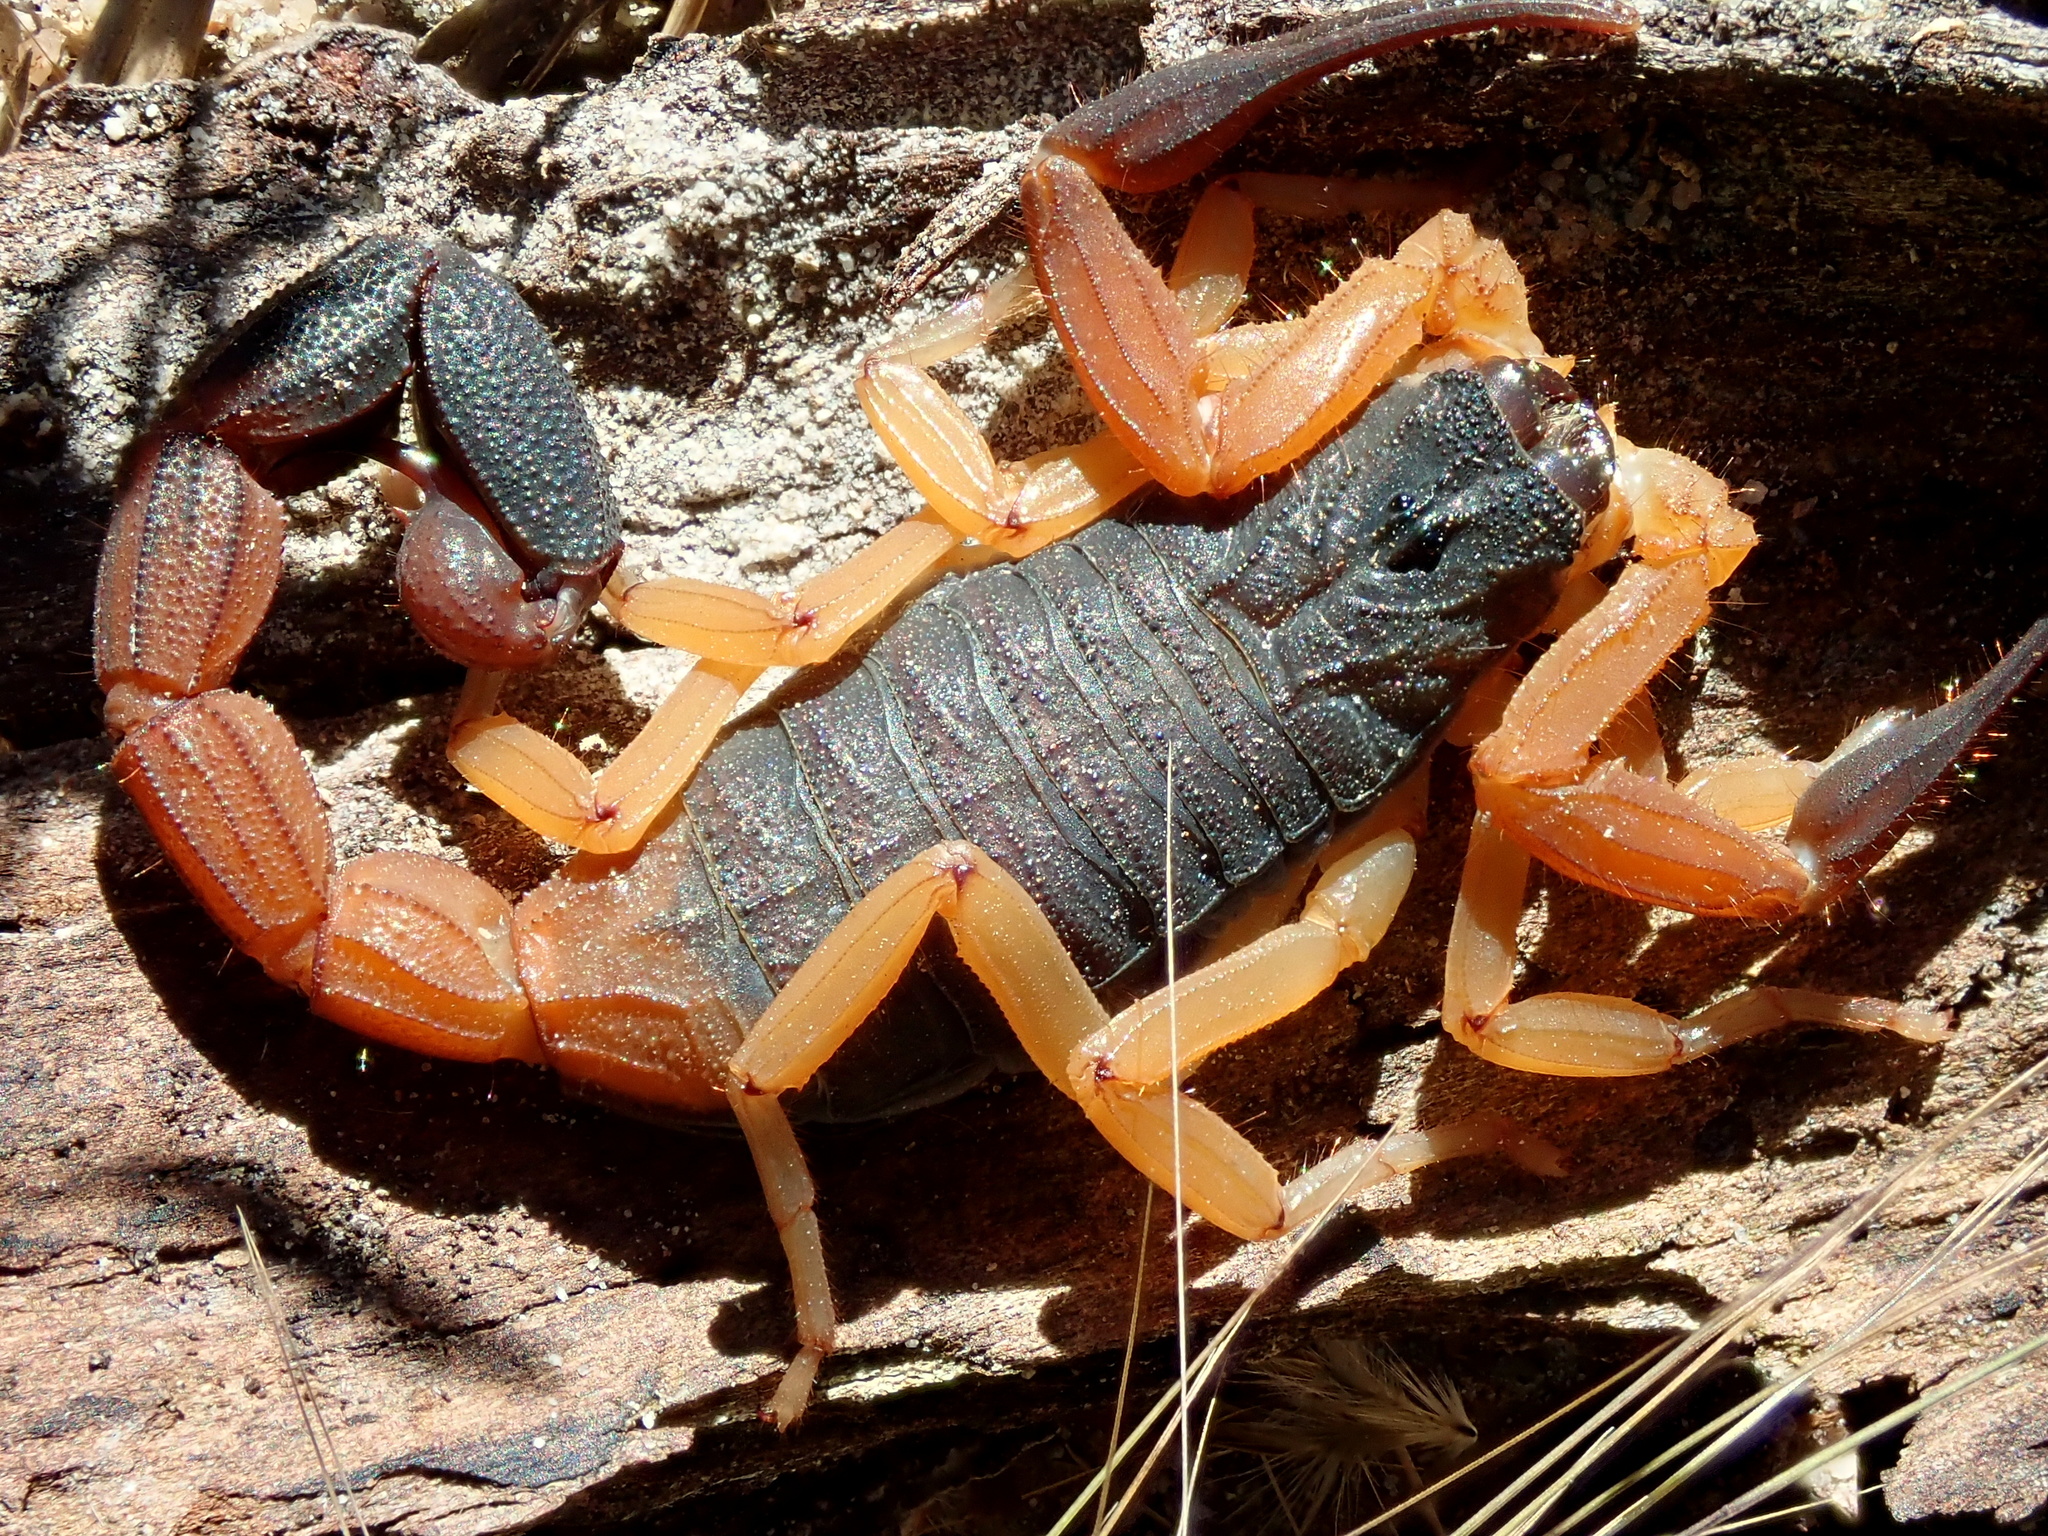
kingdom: Animalia
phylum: Arthropoda
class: Arachnida
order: Scorpiones
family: Buthidae
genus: Jaguajir
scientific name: Jaguajir agamemnon
